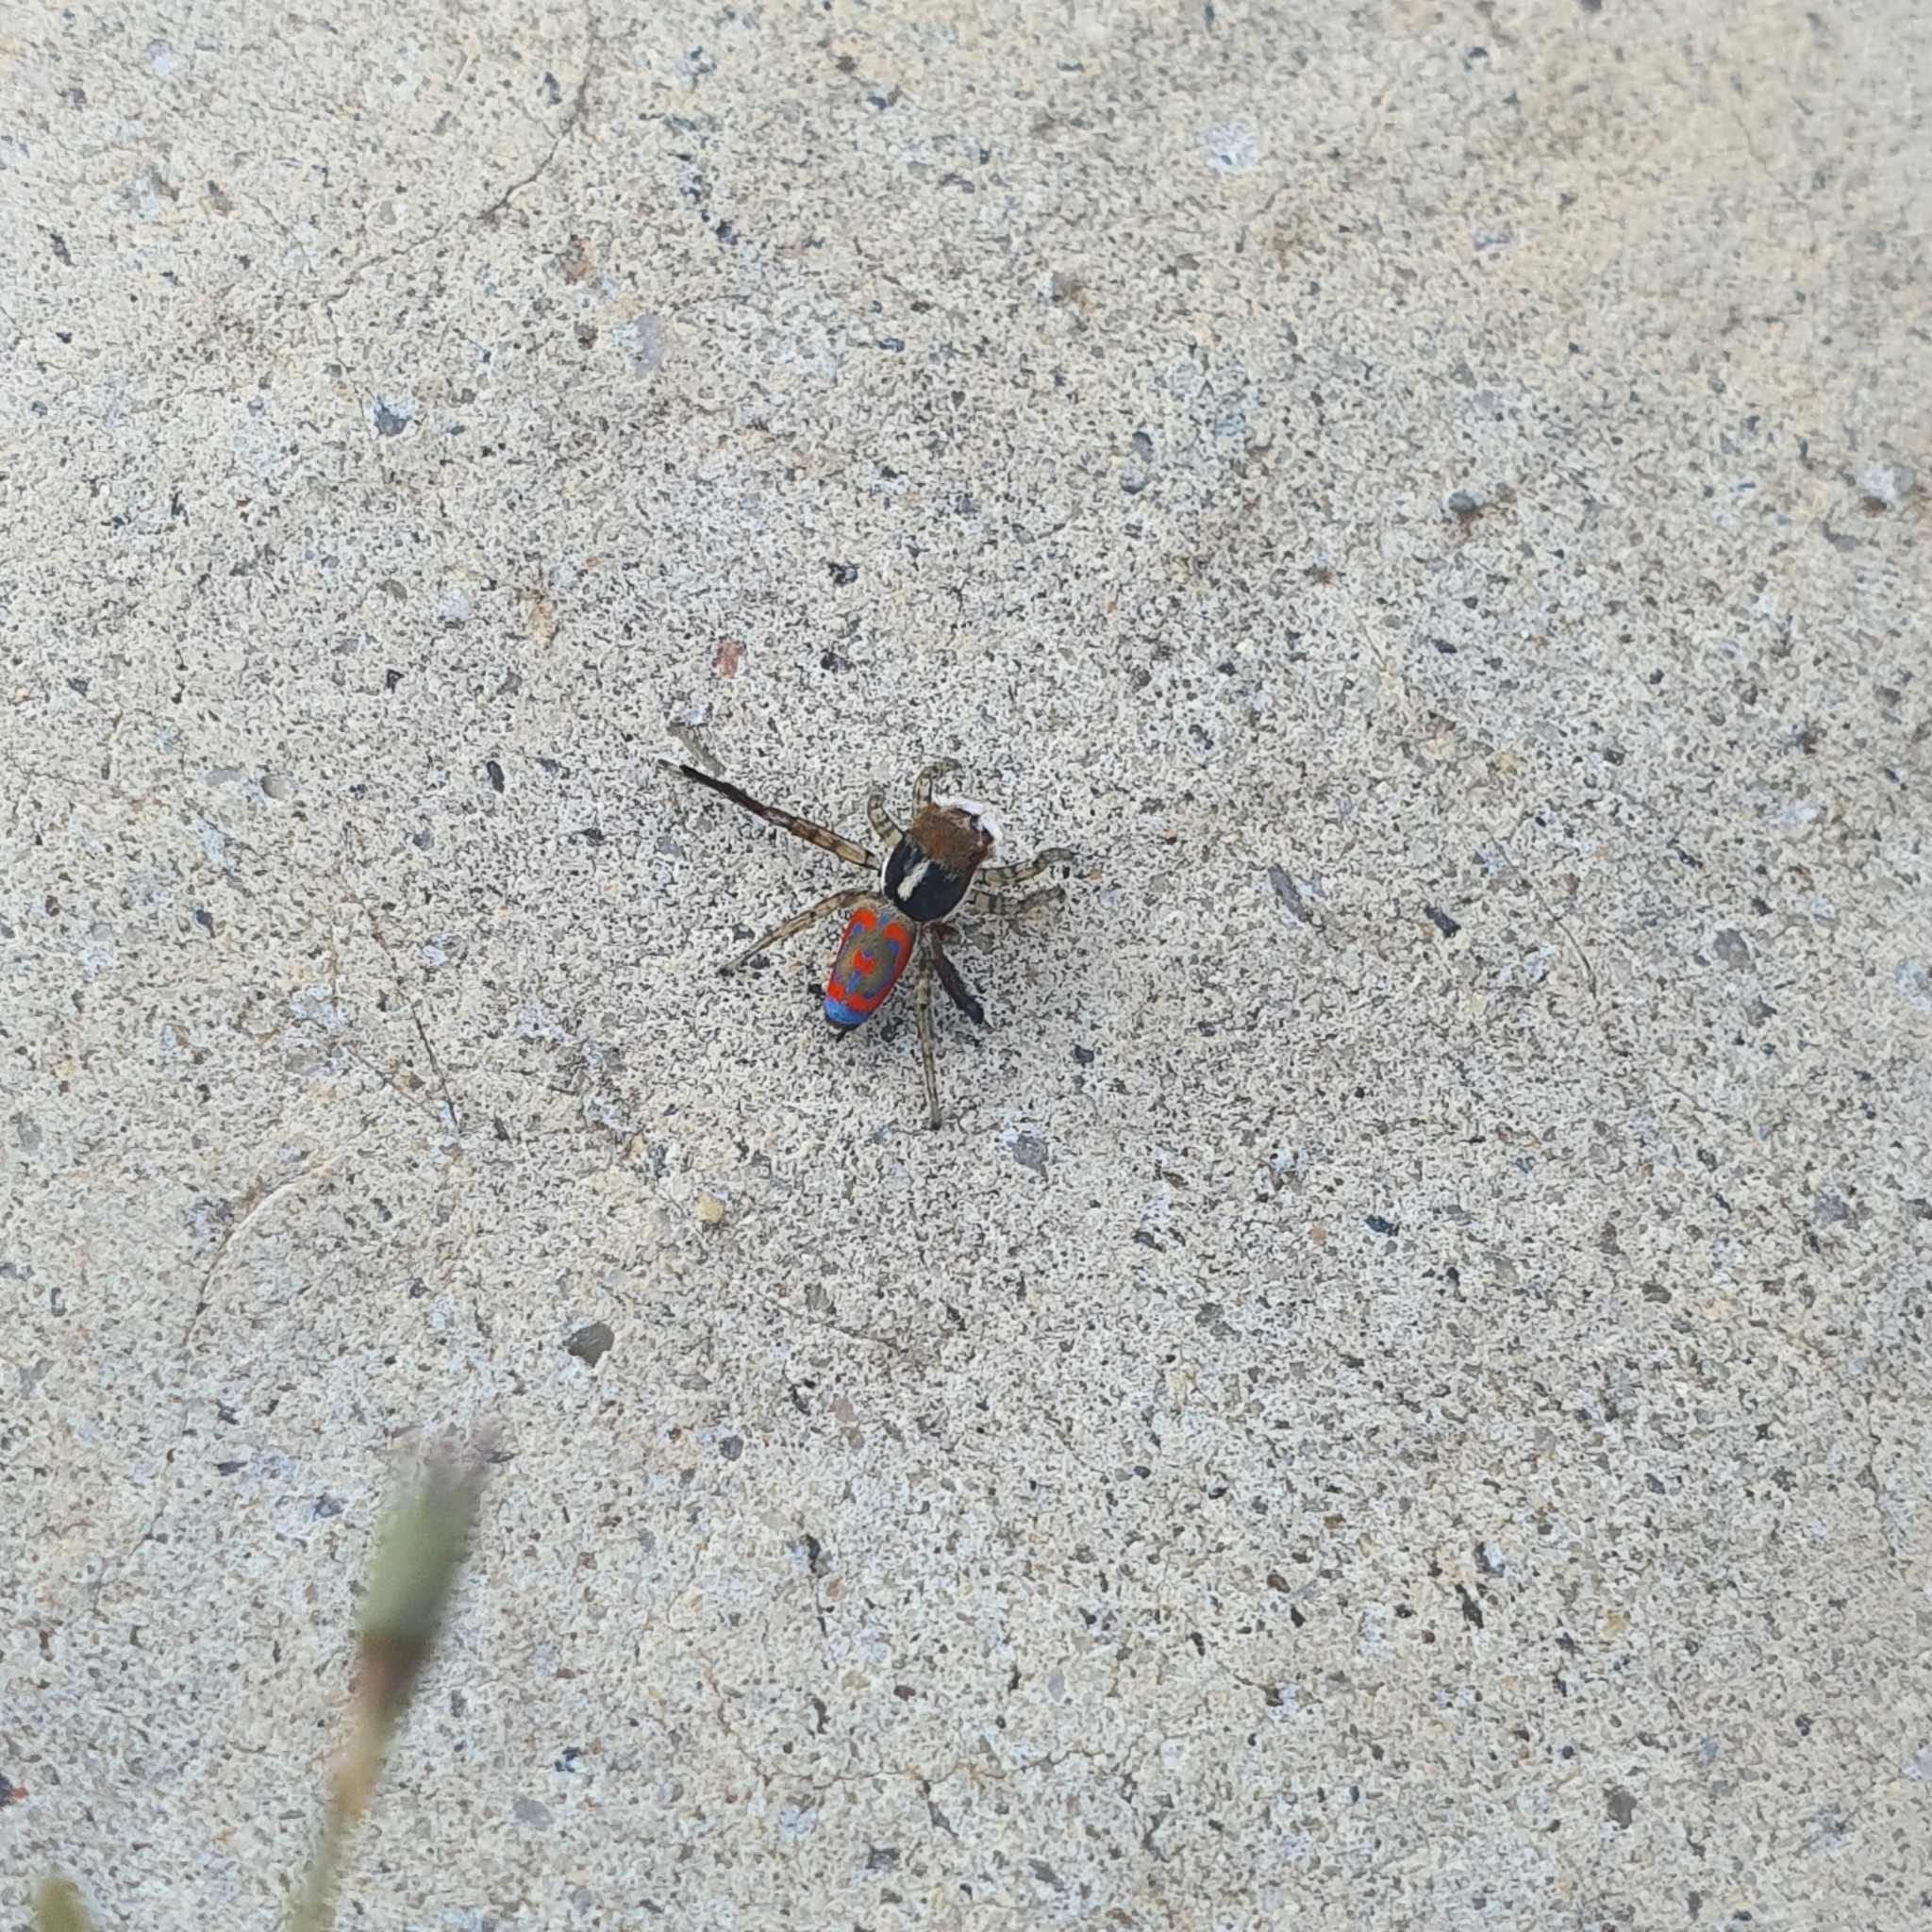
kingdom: Animalia
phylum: Arthropoda
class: Arachnida
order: Araneae
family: Salticidae
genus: Maratus
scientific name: Maratus pavonis
